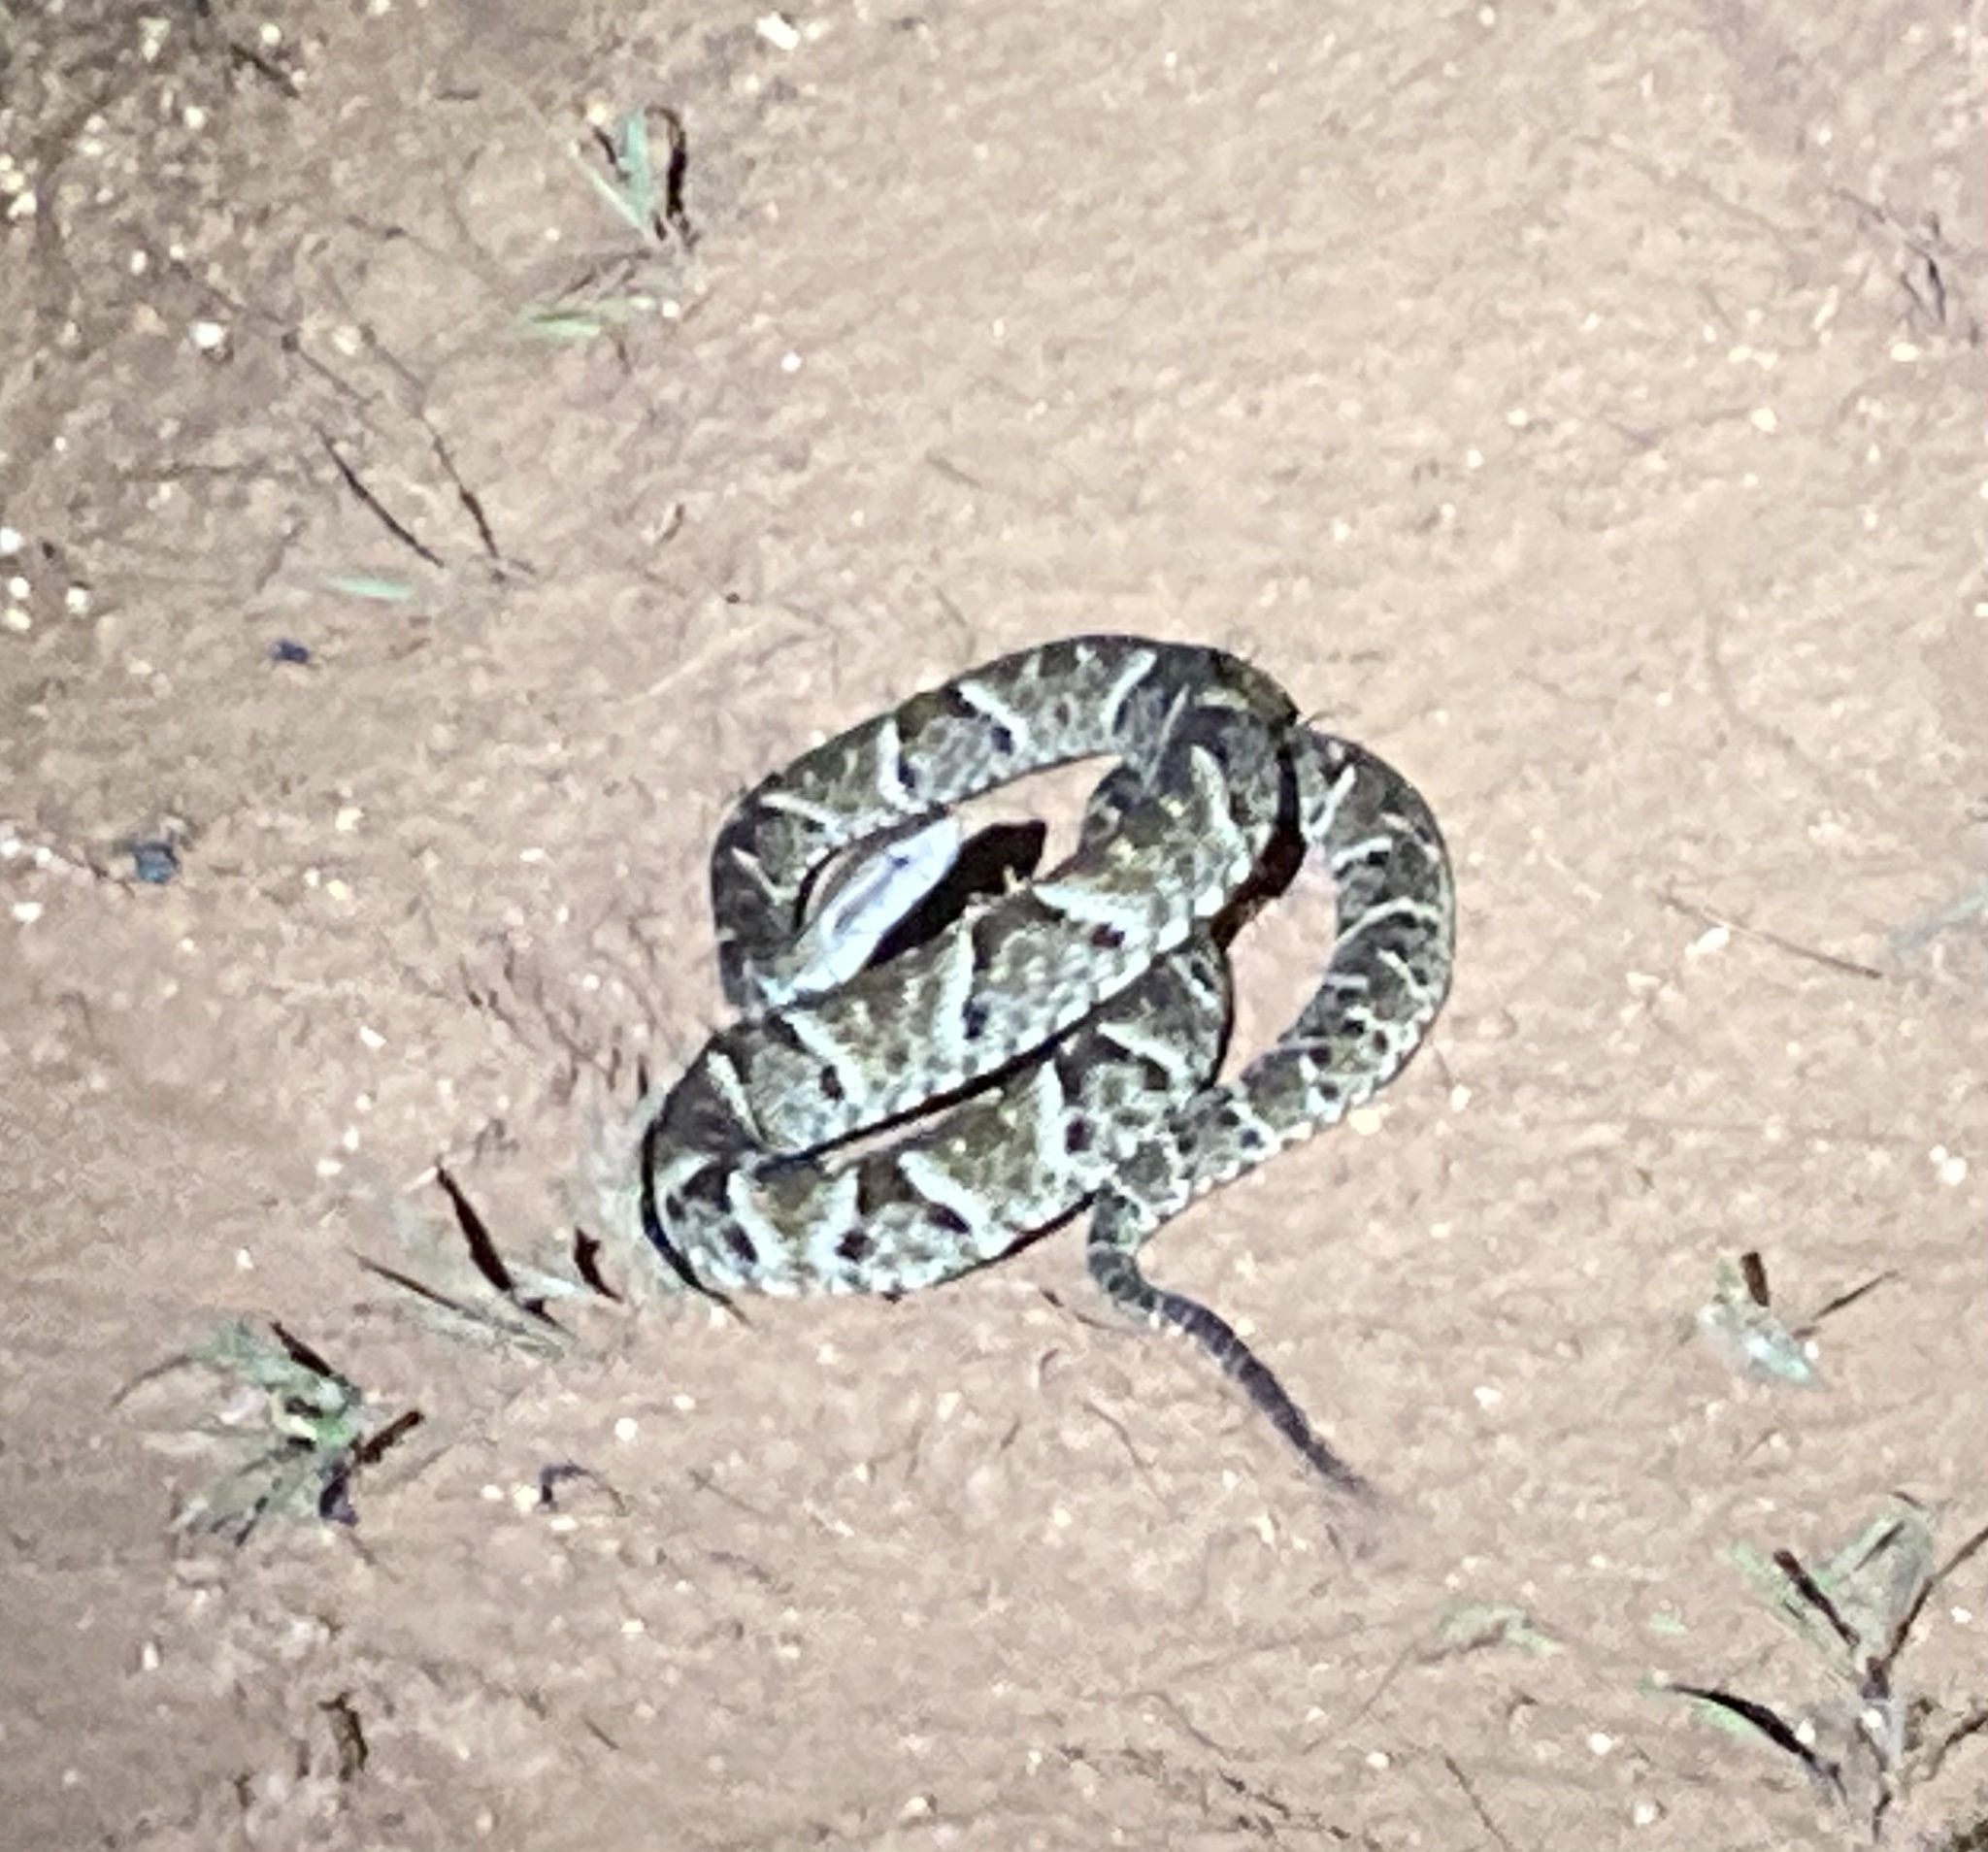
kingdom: Animalia
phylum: Chordata
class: Squamata
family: Viperidae
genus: Bothrops
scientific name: Bothrops atrox
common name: Common lancehead
